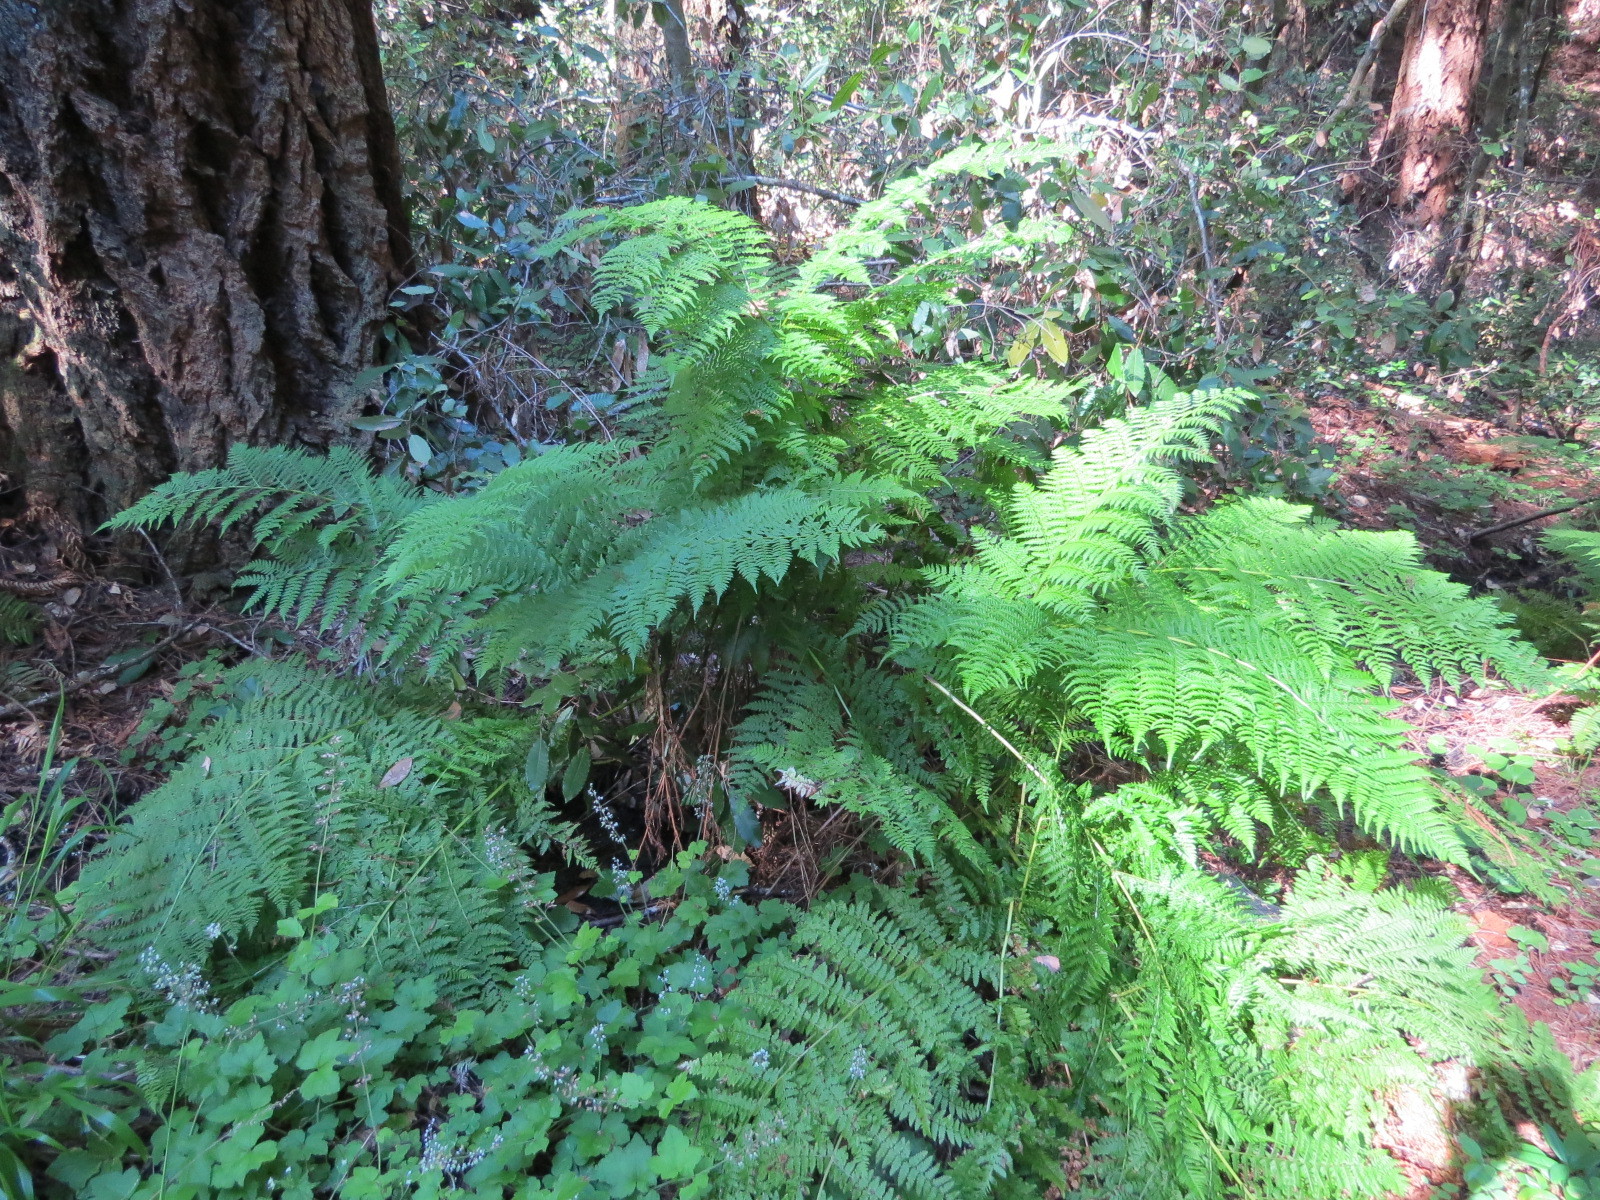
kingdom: Plantae
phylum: Tracheophyta
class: Polypodiopsida
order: Polypodiales
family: Athyriaceae
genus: Athyrium
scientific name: Athyrium filix-femina
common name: Lady fern
